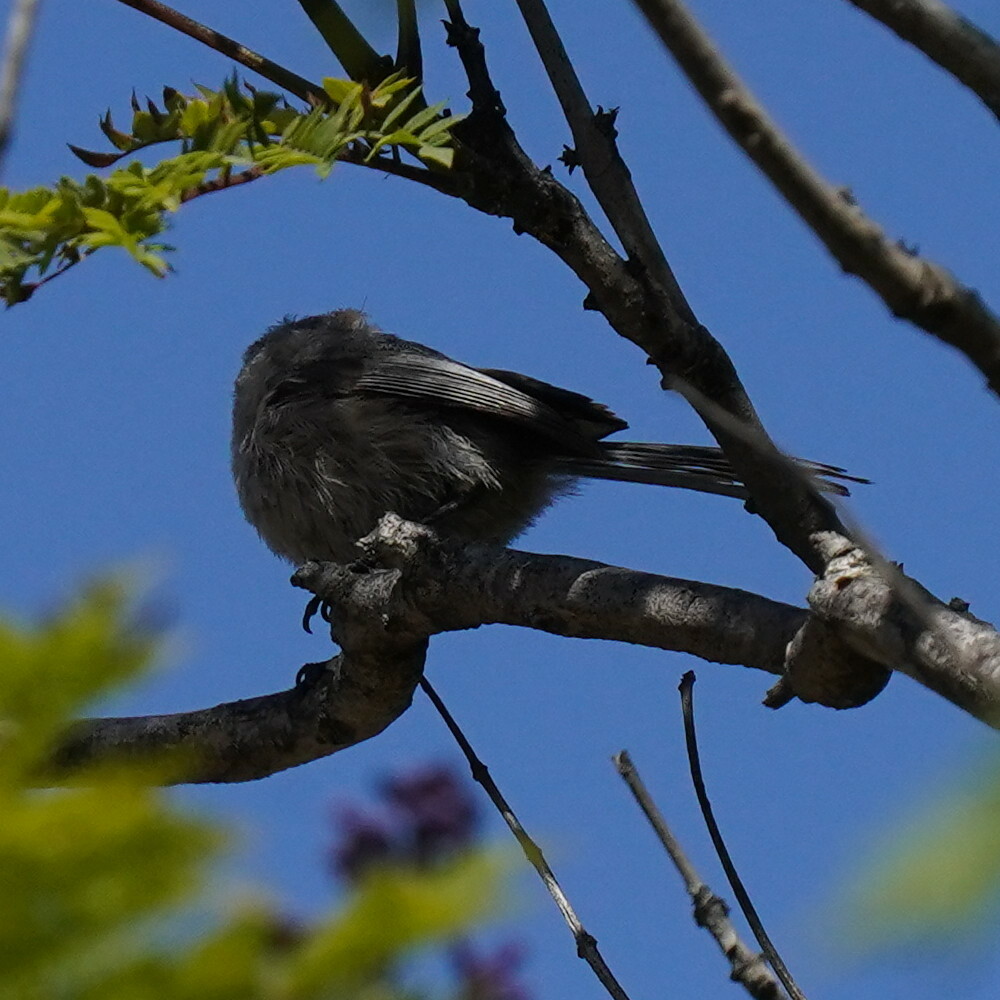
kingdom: Animalia
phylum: Chordata
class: Aves
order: Passeriformes
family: Aegithalidae
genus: Psaltriparus
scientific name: Psaltriparus minimus
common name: American bushtit
